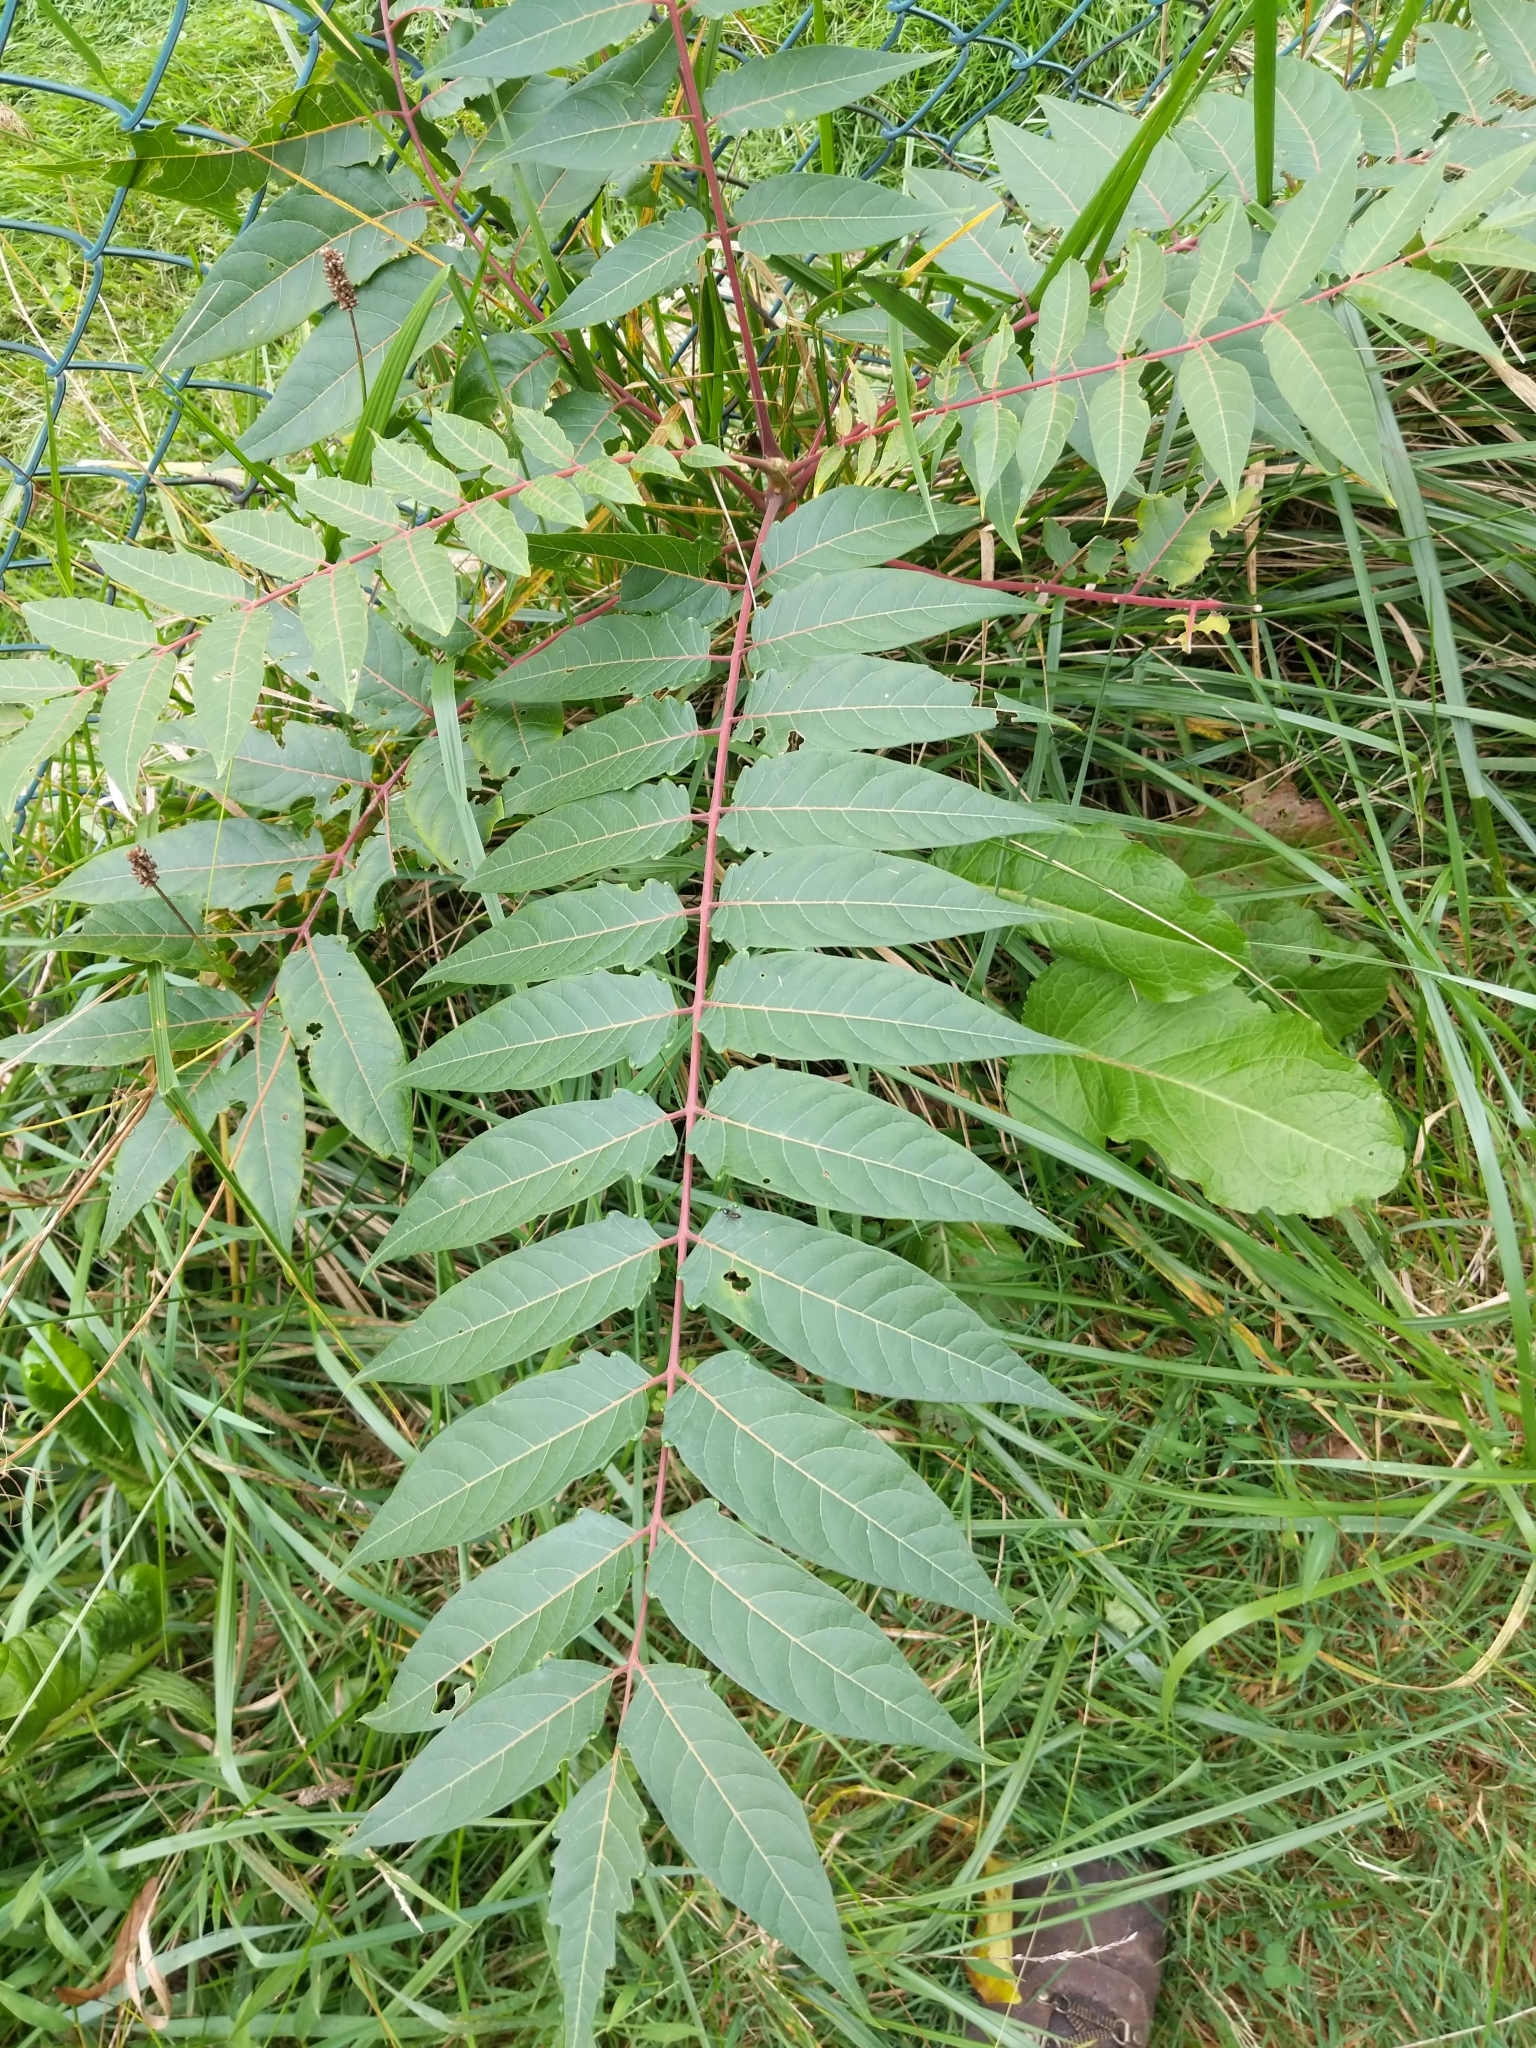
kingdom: Plantae
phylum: Tracheophyta
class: Magnoliopsida
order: Sapindales
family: Simaroubaceae
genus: Ailanthus
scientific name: Ailanthus altissima
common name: Tree-of-heaven
